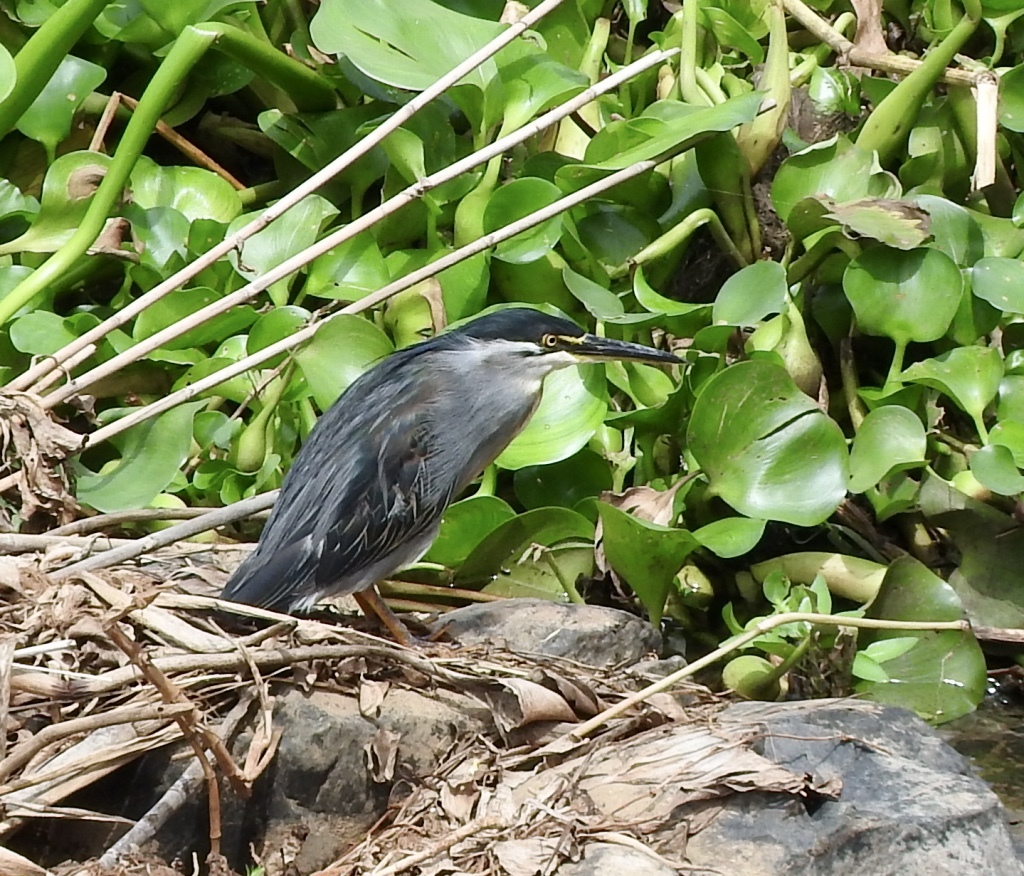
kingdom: Animalia
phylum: Chordata
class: Aves
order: Pelecaniformes
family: Ardeidae
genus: Butorides
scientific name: Butorides striata
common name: Striated heron
